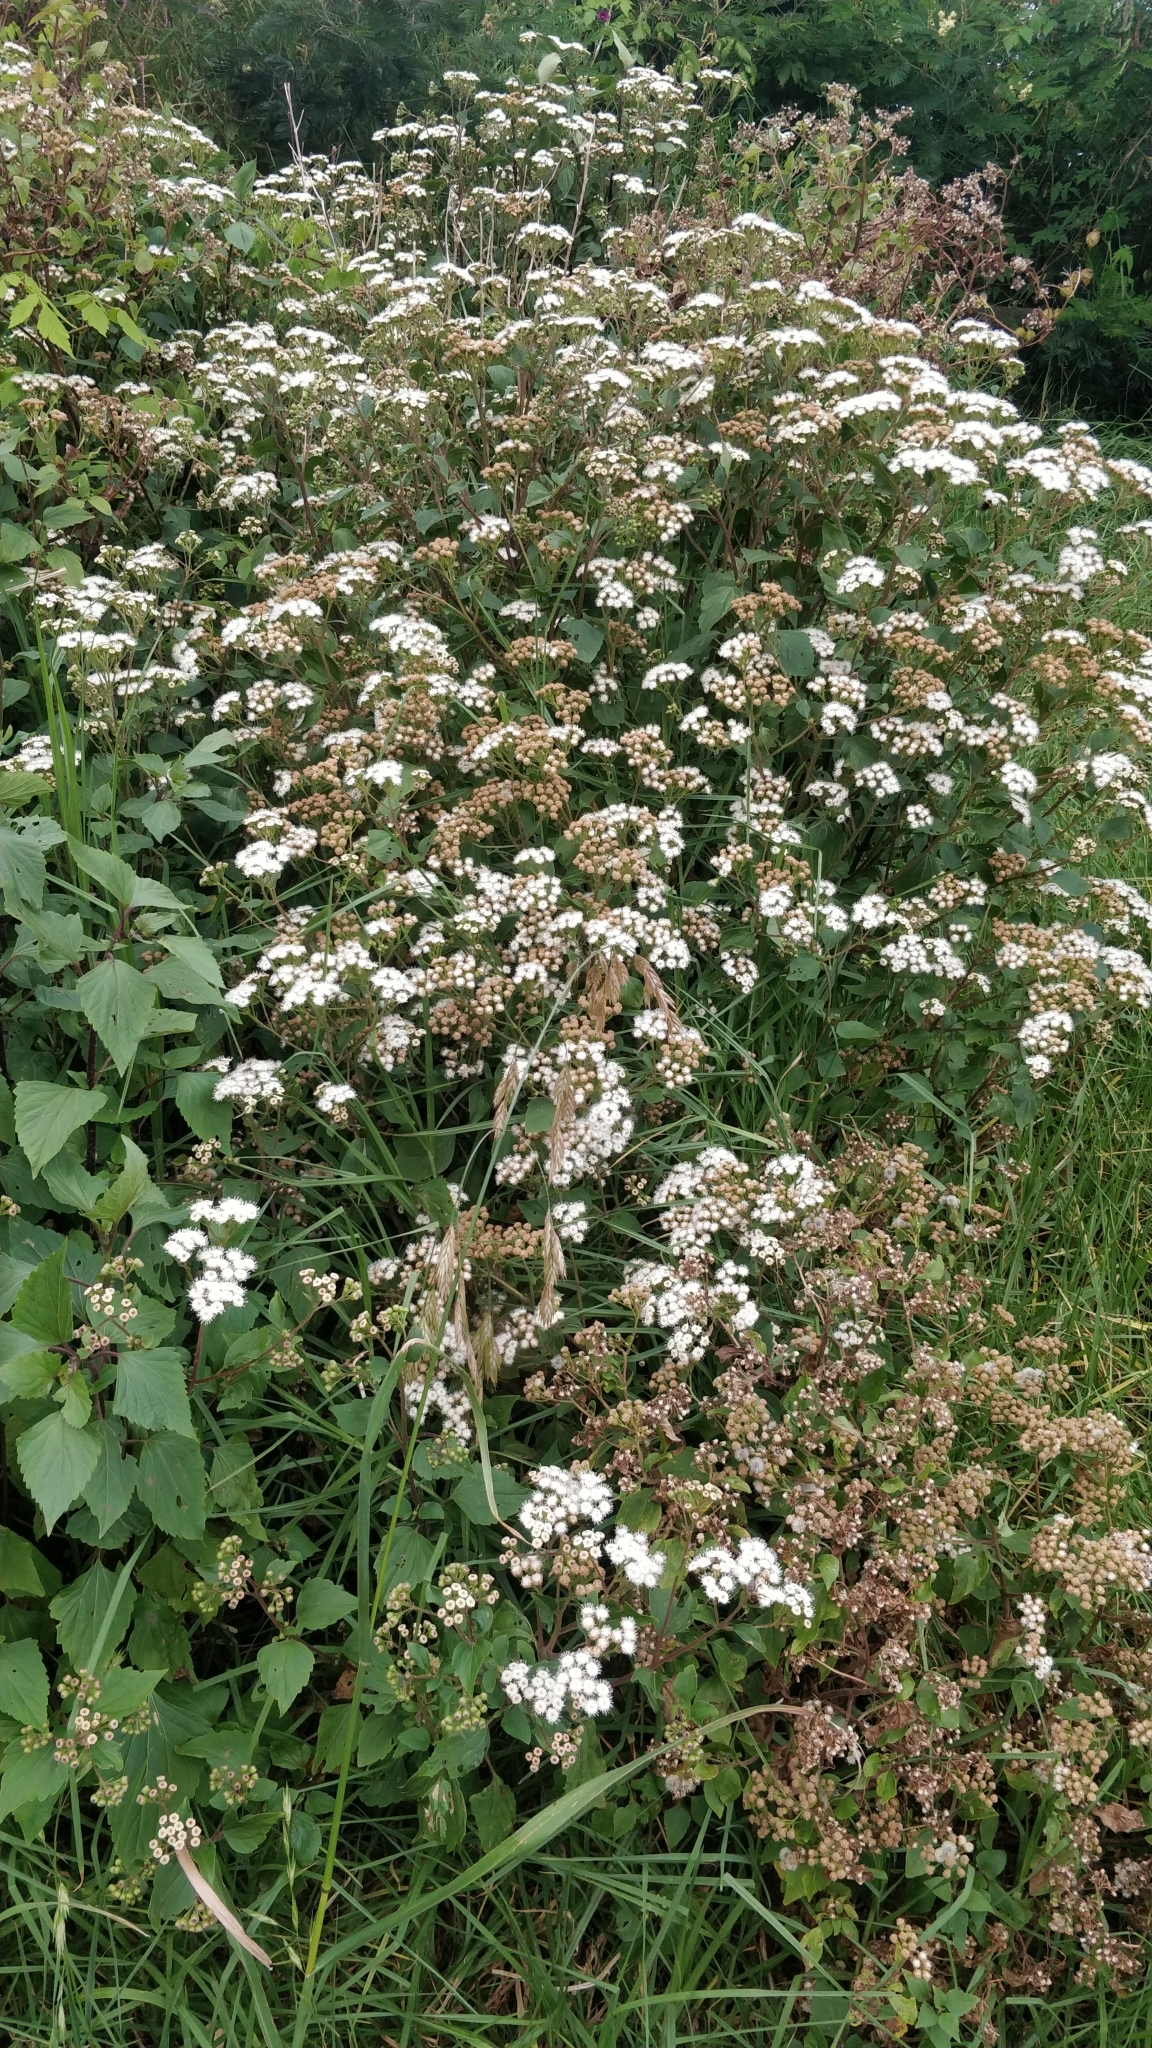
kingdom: Plantae
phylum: Tracheophyta
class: Magnoliopsida
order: Asterales
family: Asteraceae
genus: Ageratina
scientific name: Ageratina adenophora
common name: Sticky snakeroot
